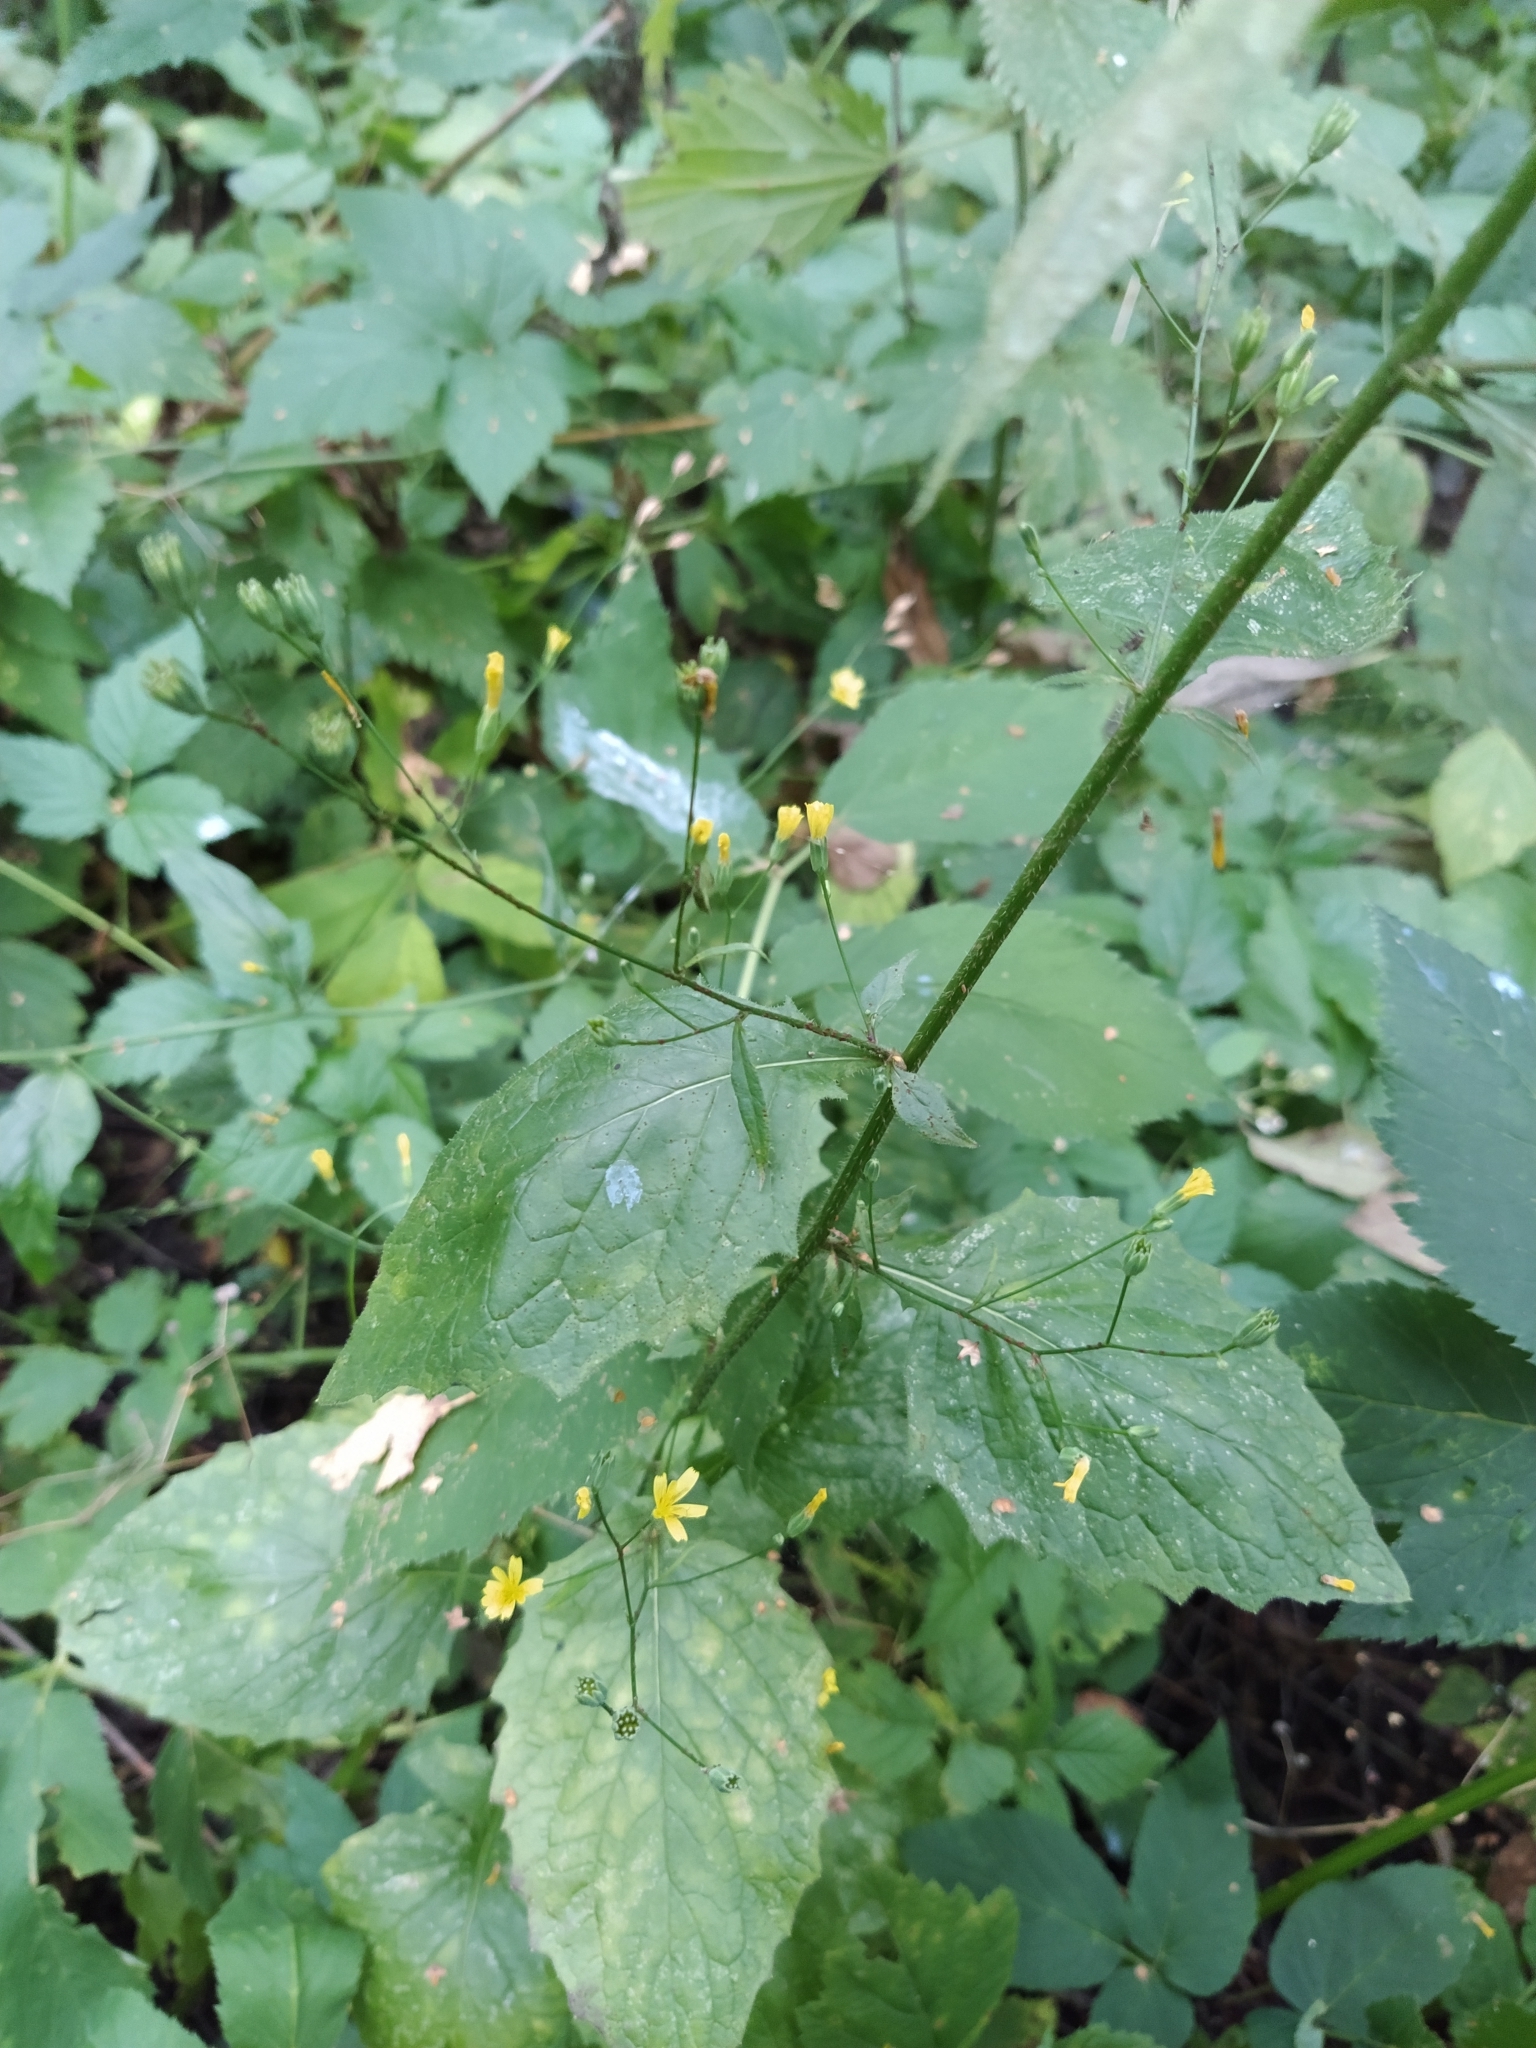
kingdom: Plantae
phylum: Tracheophyta
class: Magnoliopsida
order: Asterales
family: Asteraceae
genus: Lapsana
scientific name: Lapsana communis
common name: Nipplewort
